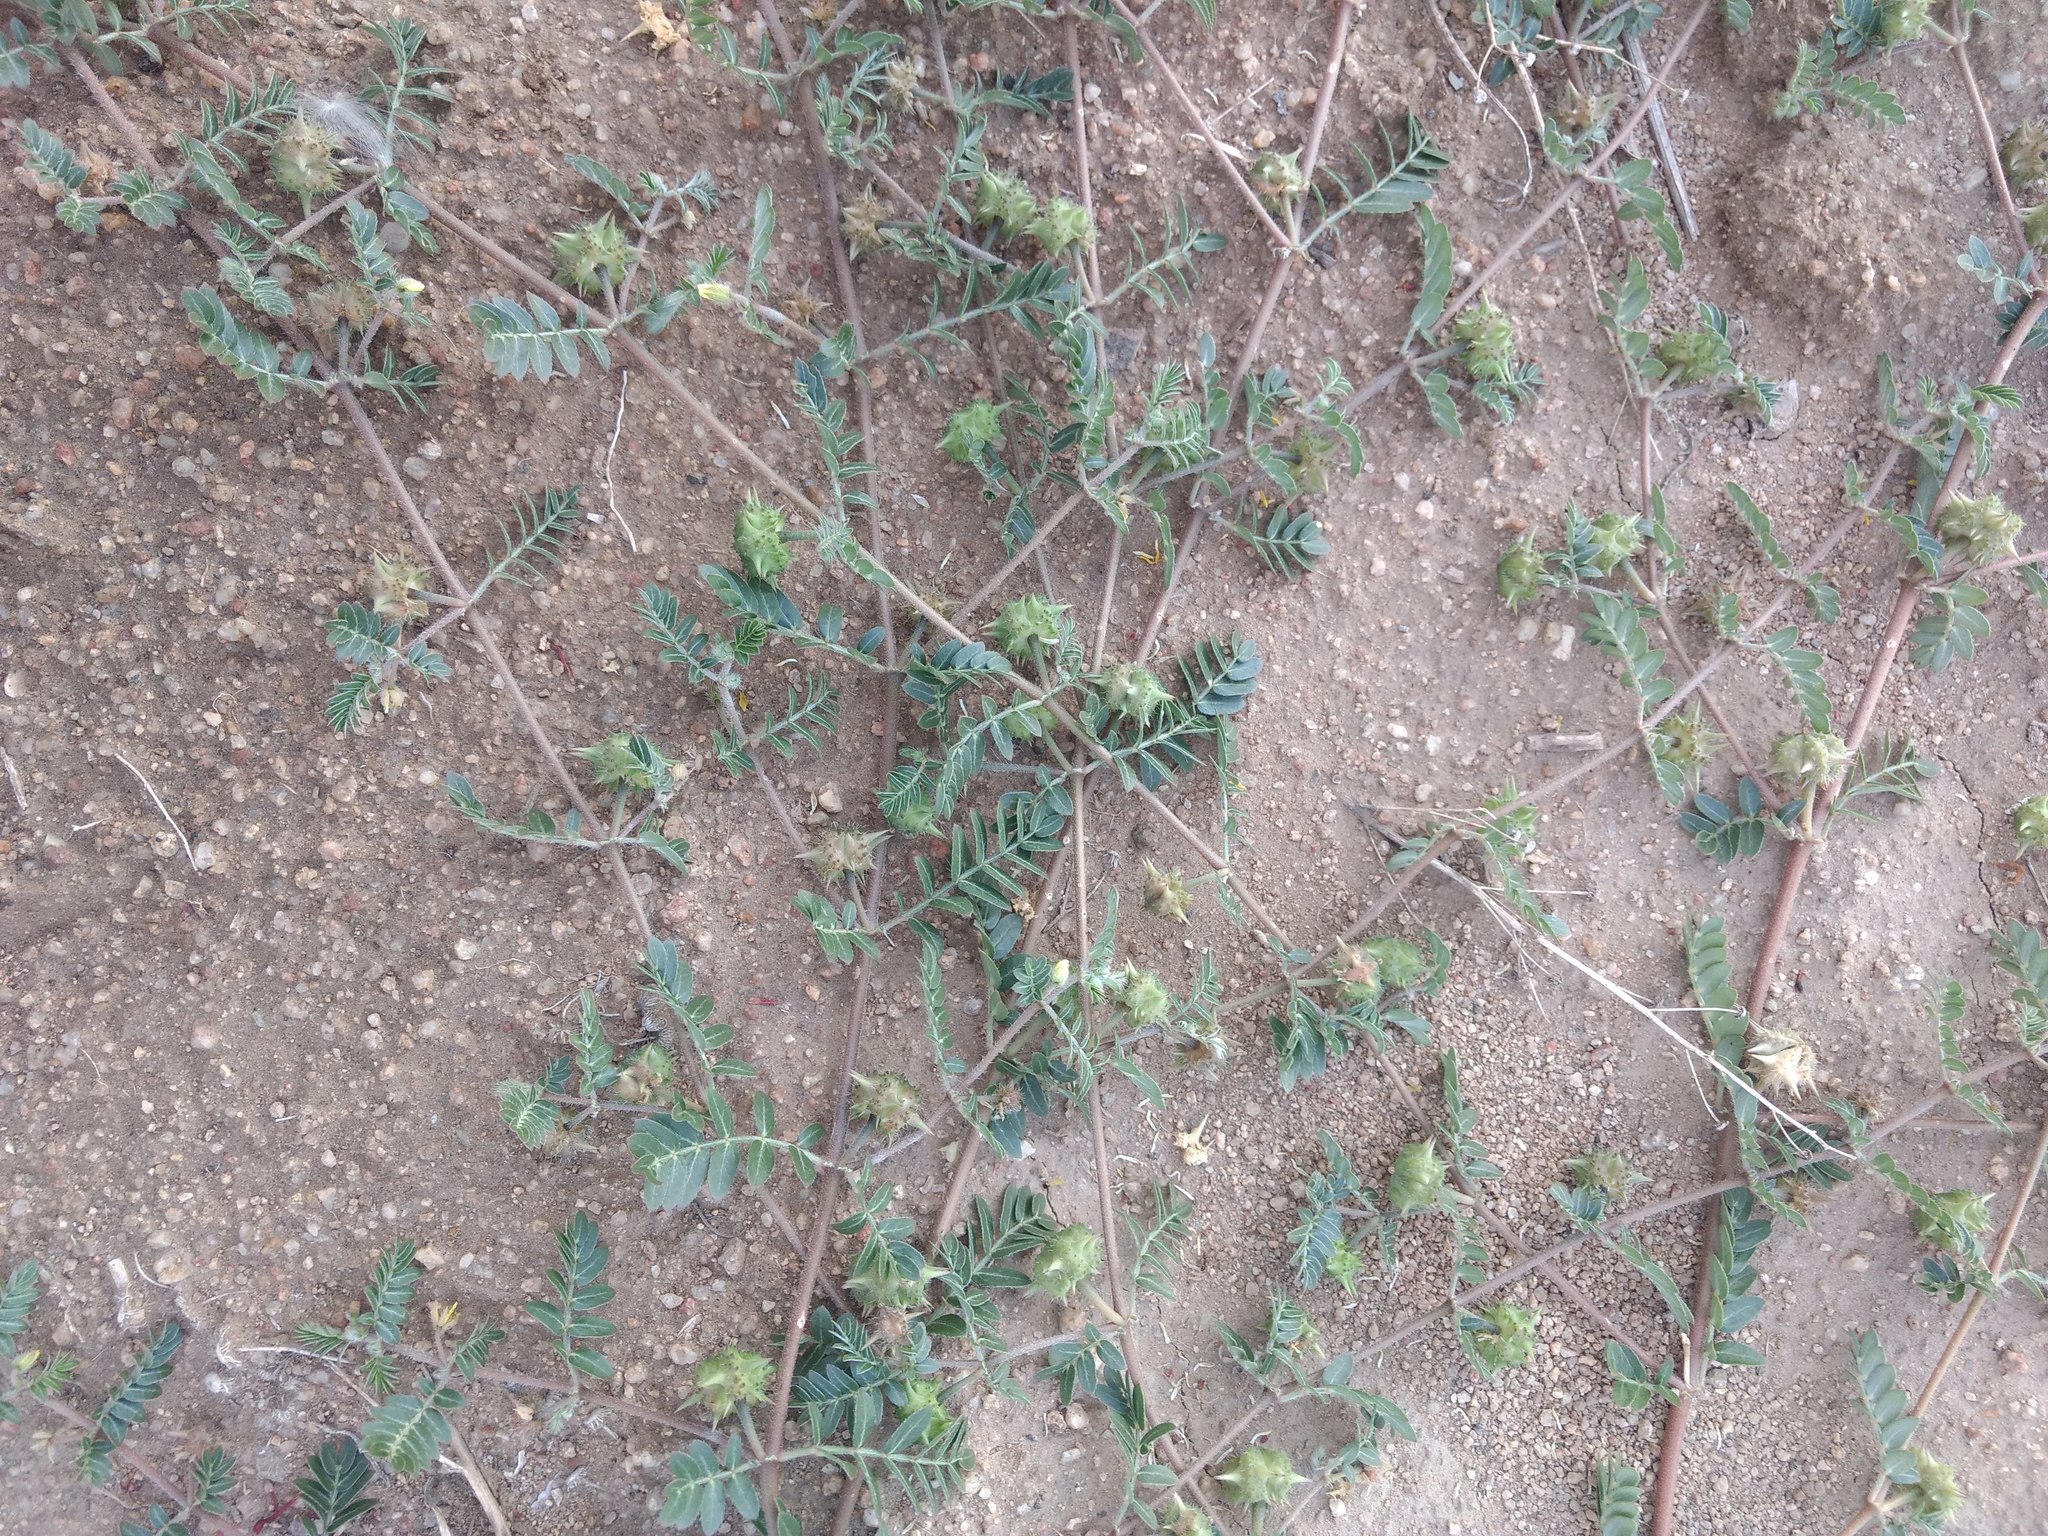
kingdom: Plantae
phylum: Tracheophyta
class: Magnoliopsida
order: Zygophyllales
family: Zygophyllaceae
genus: Tribulus
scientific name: Tribulus terrestris
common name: Puncturevine
